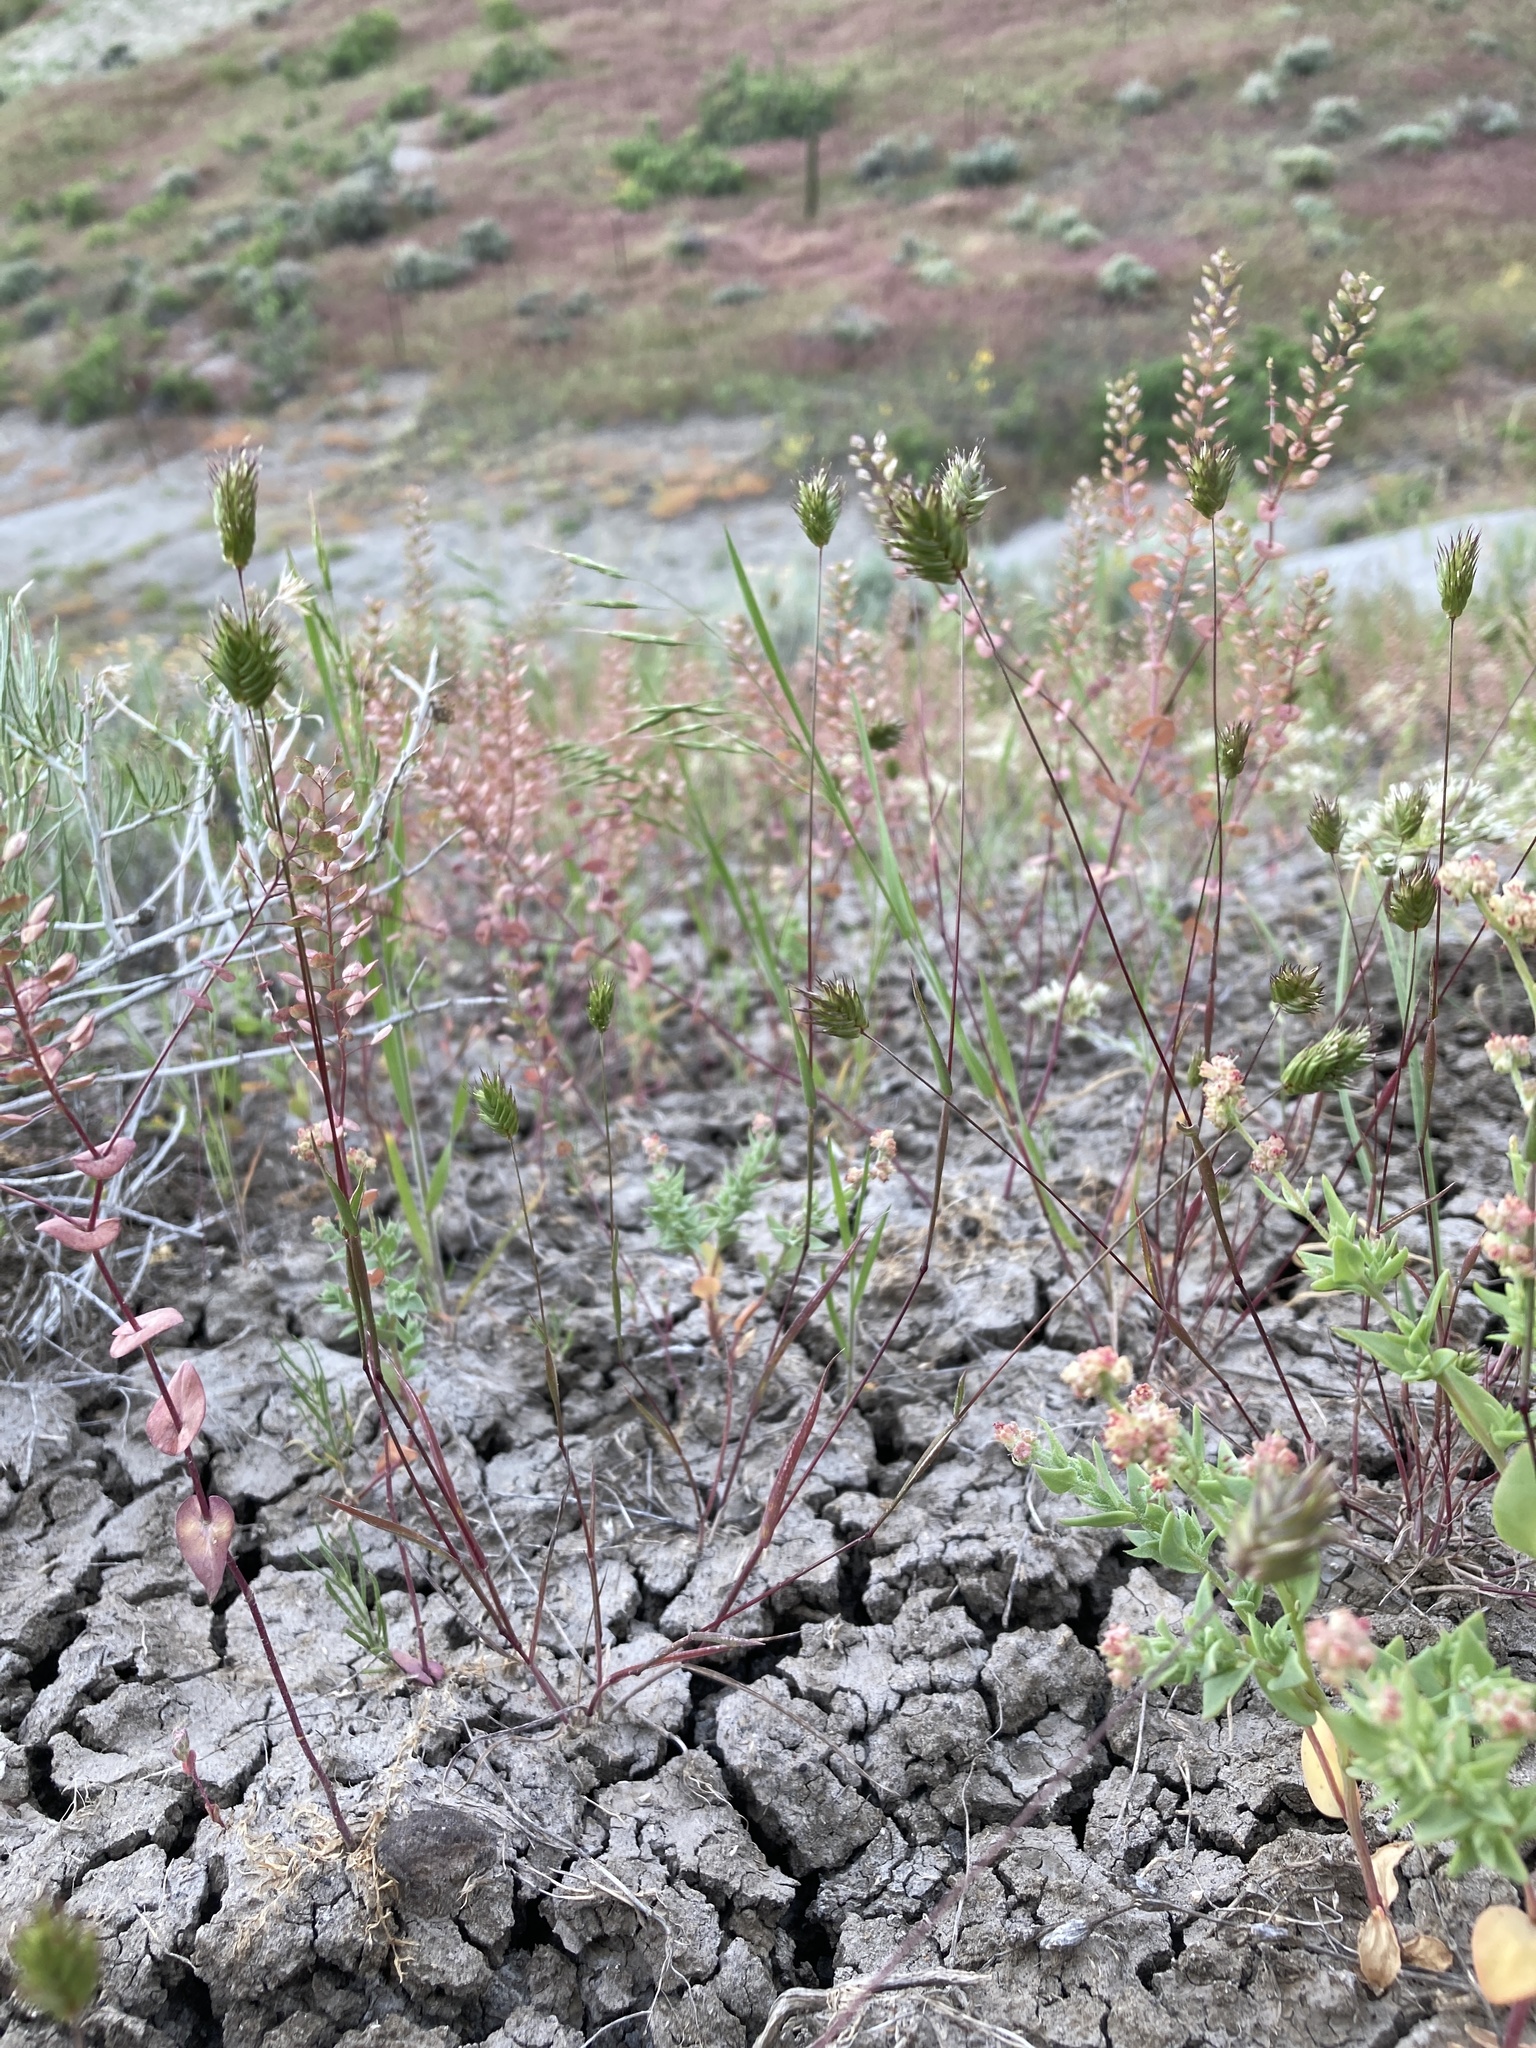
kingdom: Plantae
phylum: Tracheophyta
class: Liliopsida
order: Poales
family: Poaceae
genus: Eremopyrum
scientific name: Eremopyrum triticeum
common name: Annual wheatgrass
